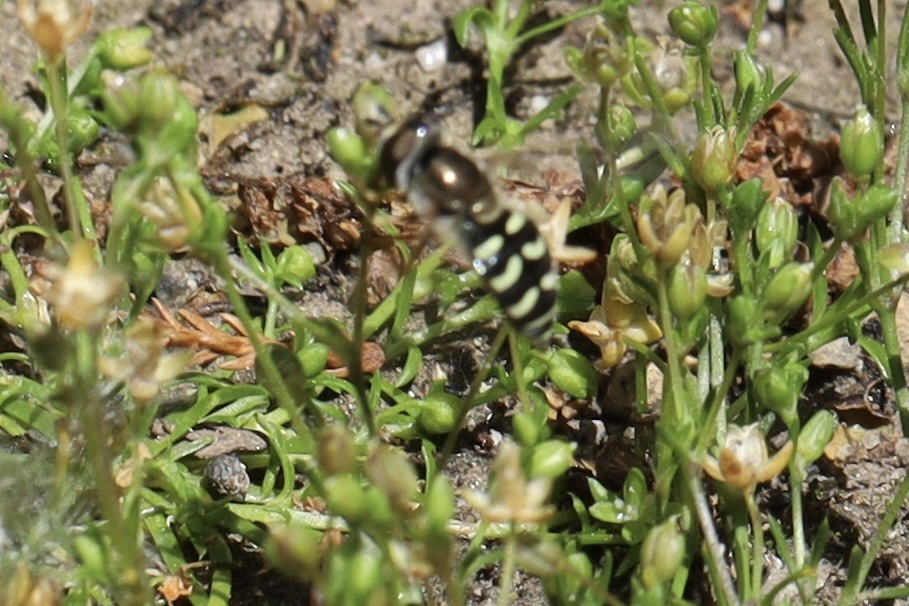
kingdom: Animalia
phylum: Arthropoda
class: Insecta
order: Diptera
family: Syrphidae
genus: Eupeodes
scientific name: Eupeodes volucris
